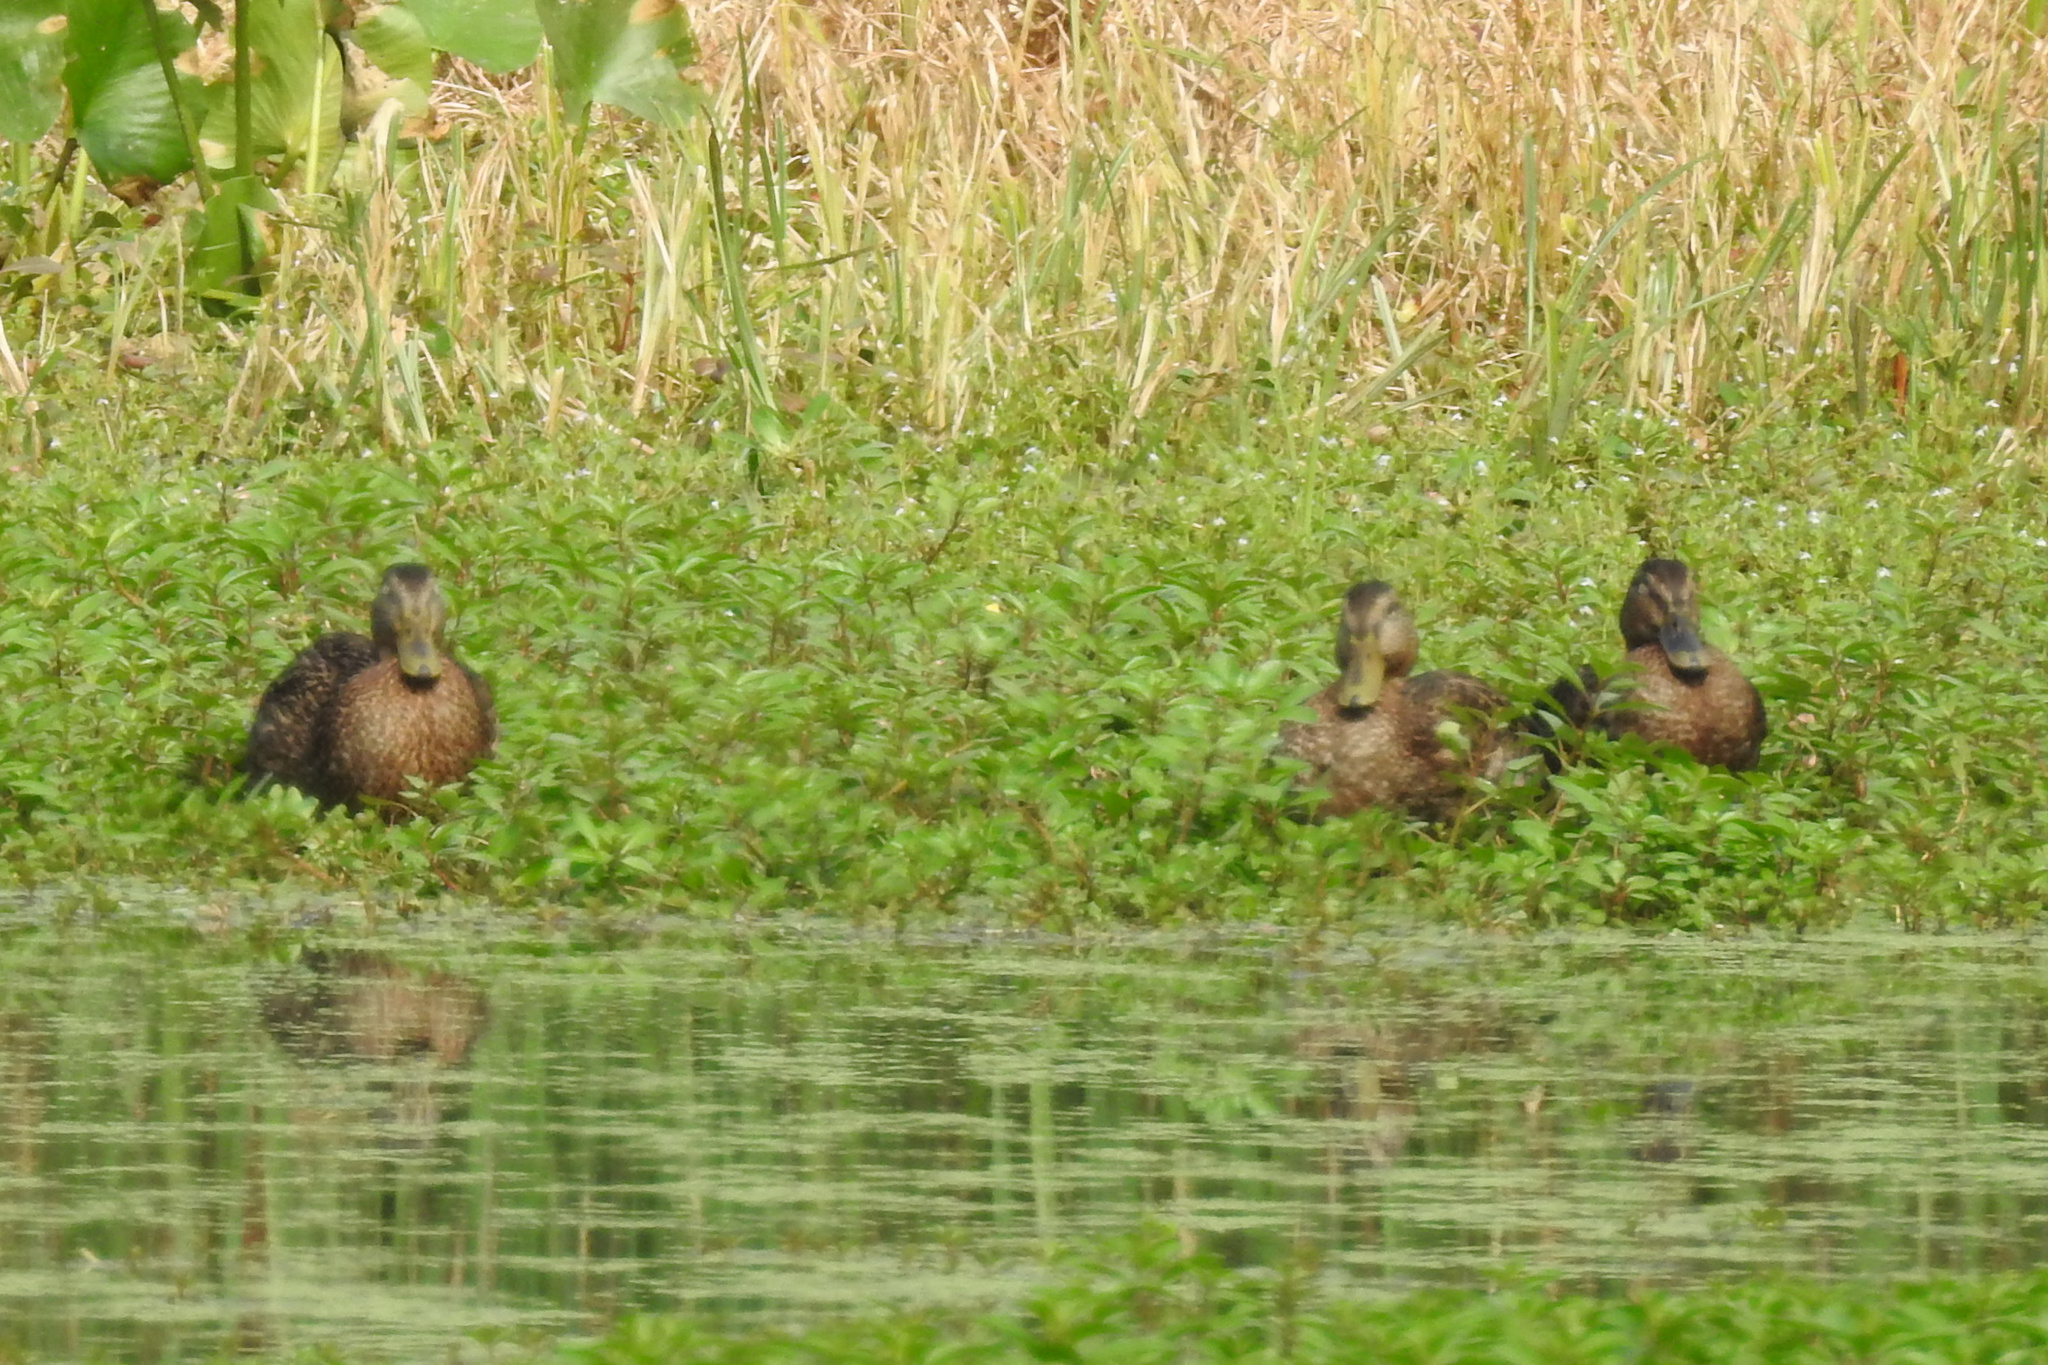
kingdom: Animalia
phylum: Chordata
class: Aves
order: Anseriformes
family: Anatidae
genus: Anas
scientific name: Anas platyrhynchos
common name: Mallard
